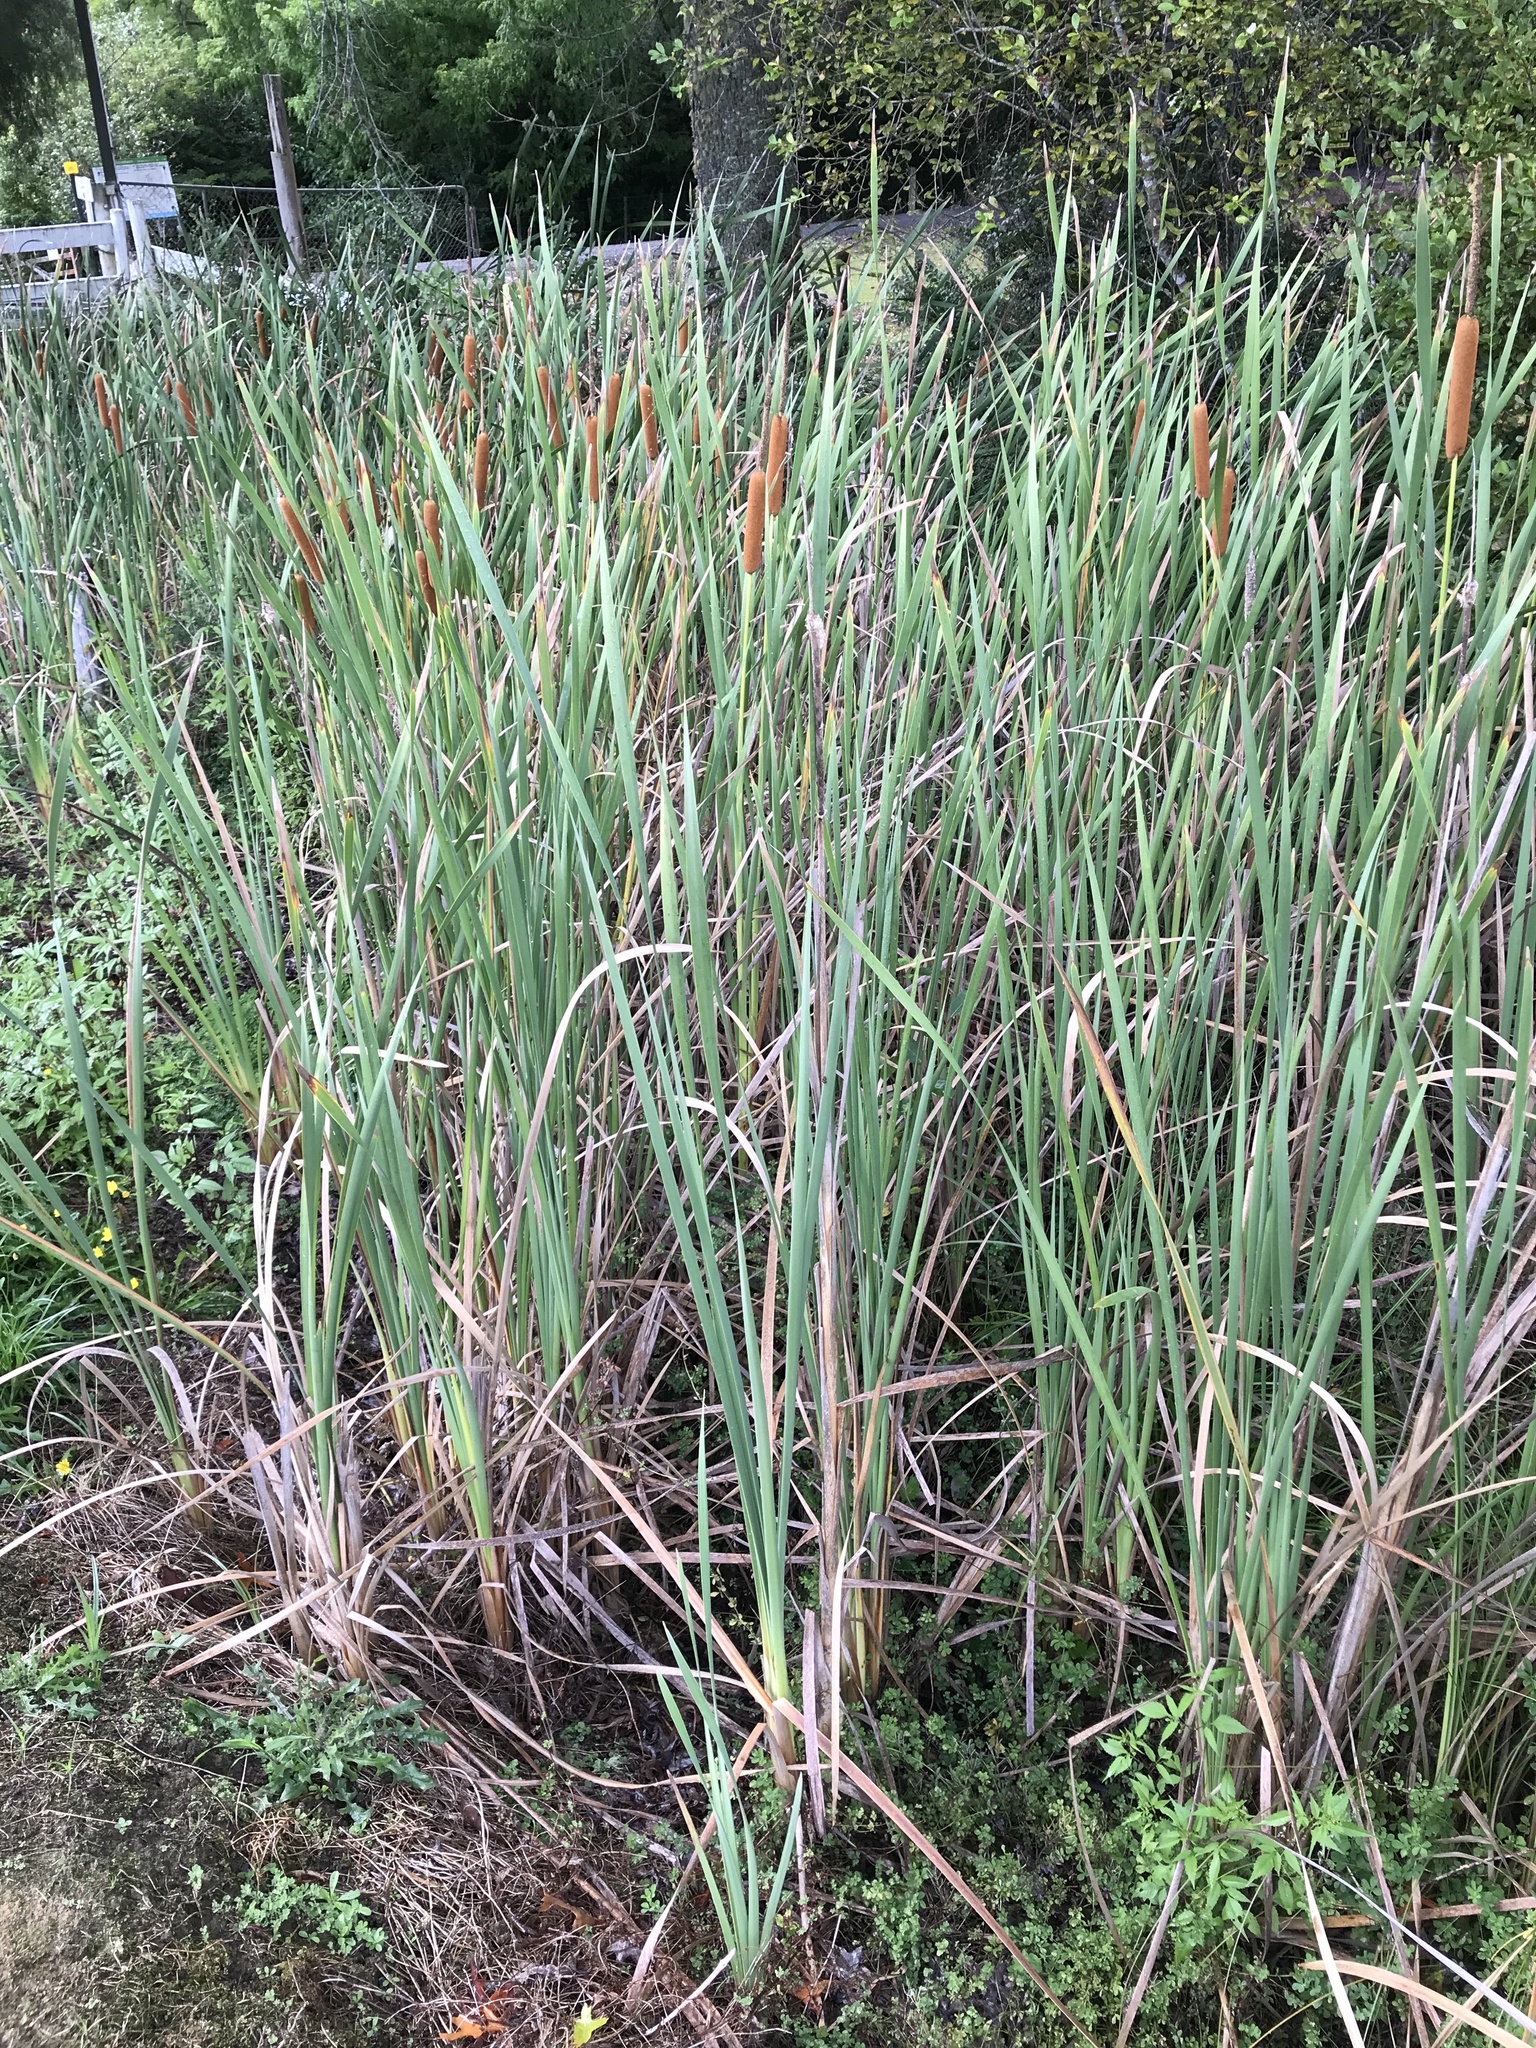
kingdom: Plantae
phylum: Tracheophyta
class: Liliopsida
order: Poales
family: Typhaceae
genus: Typha
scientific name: Typha orientalis
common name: Bullrush
